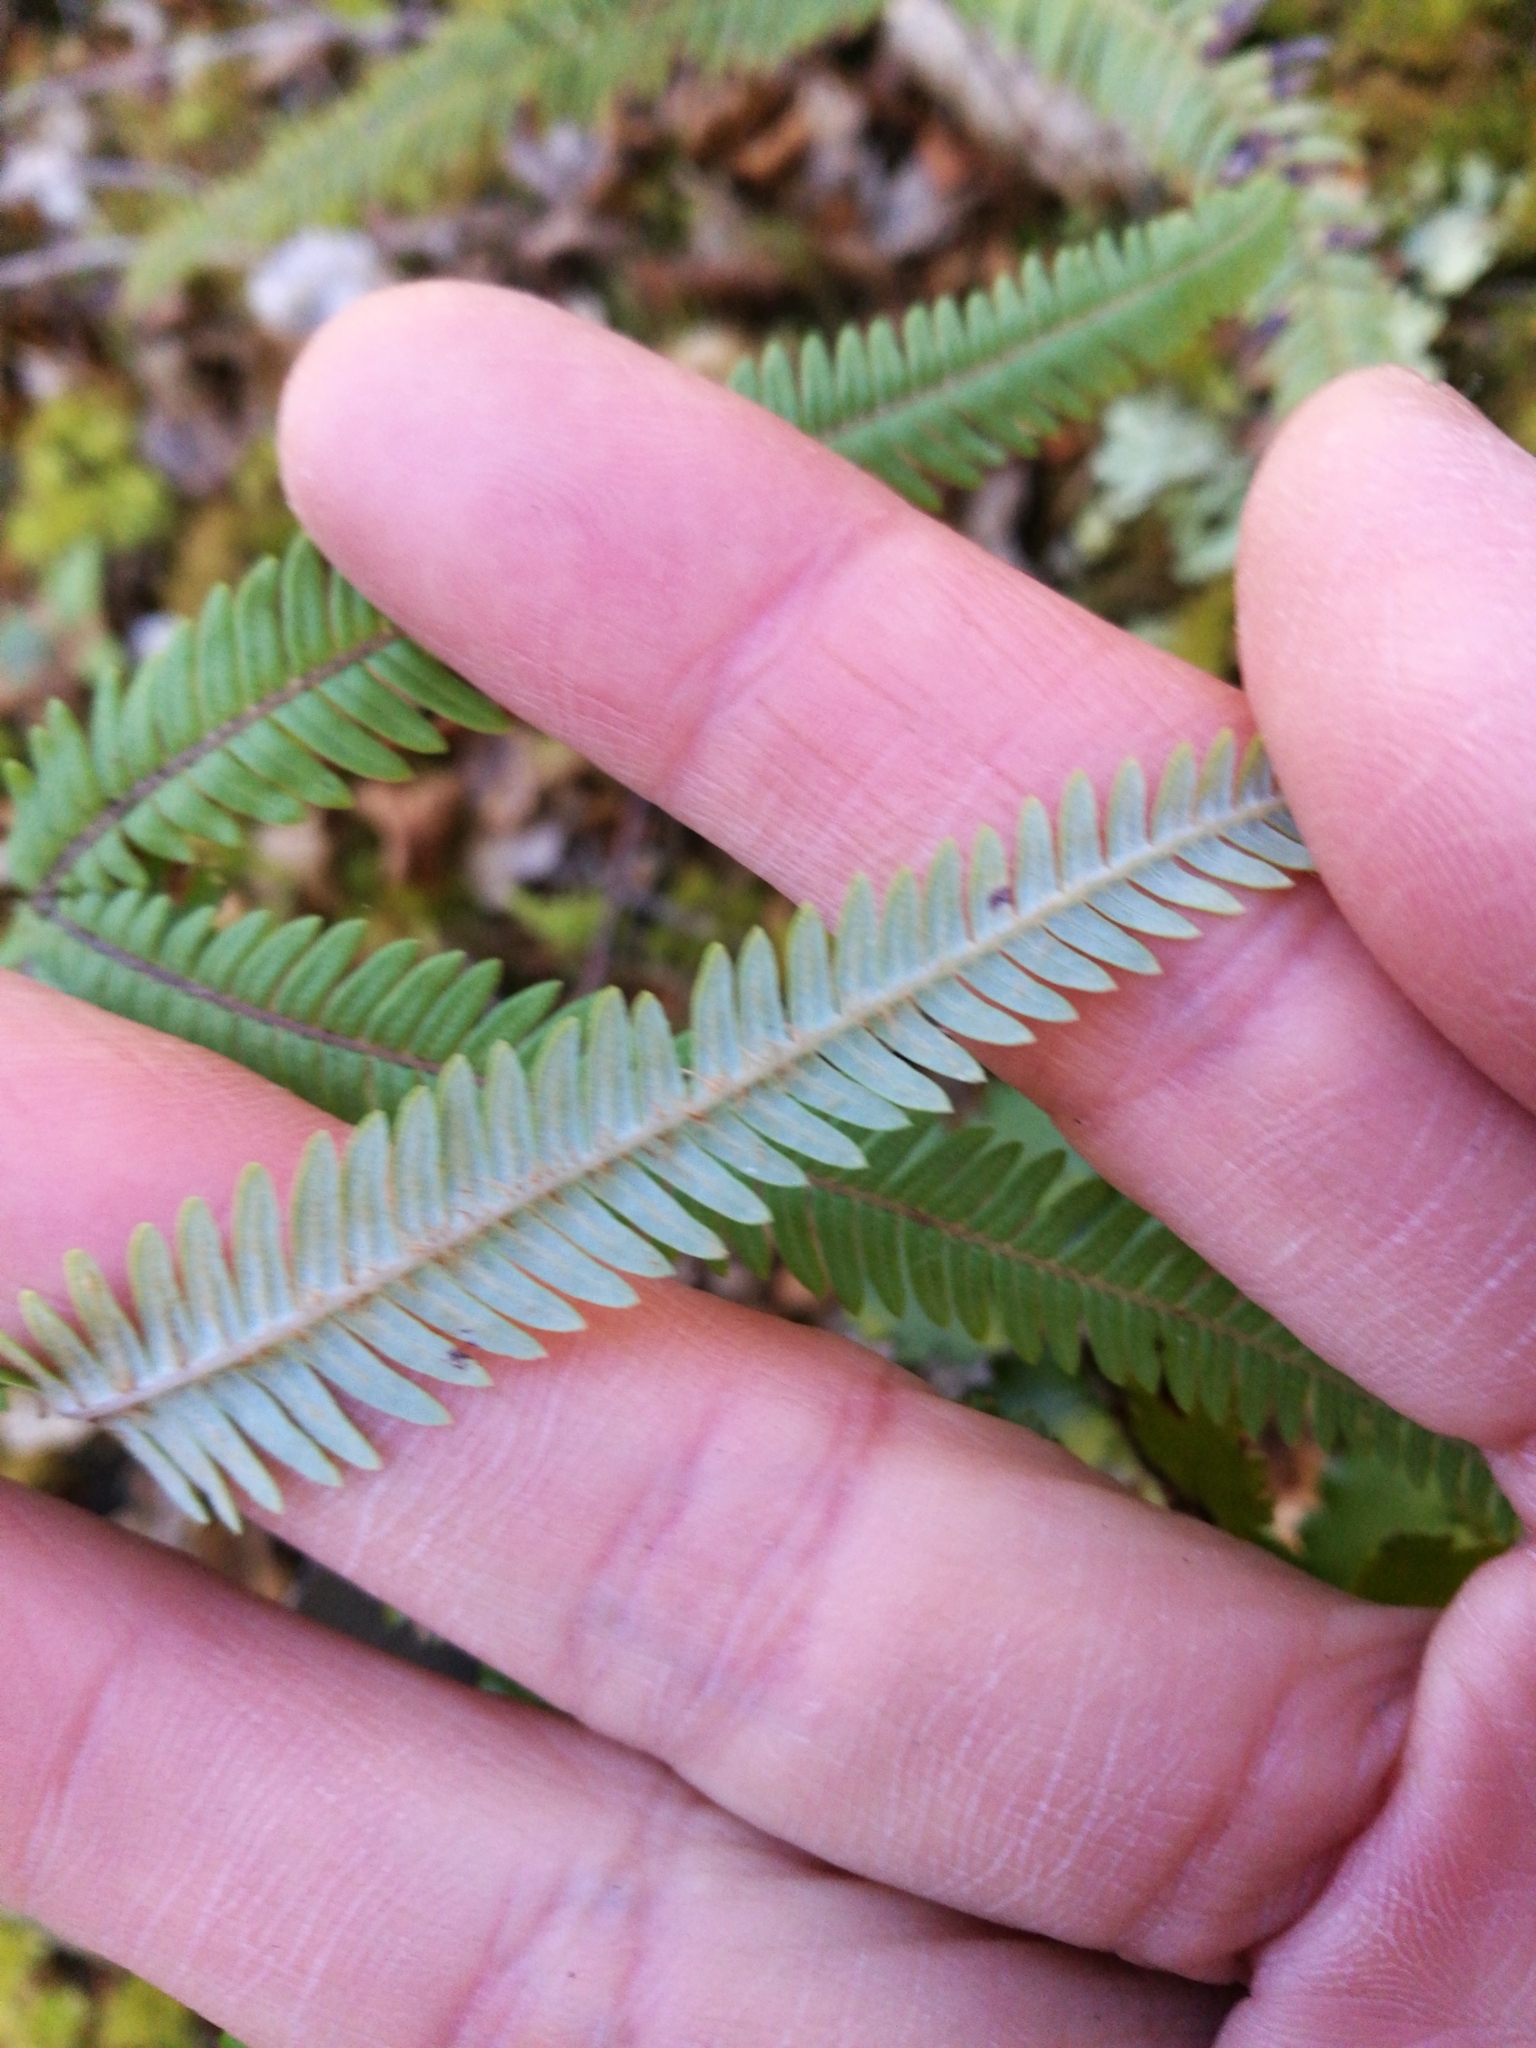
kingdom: Plantae
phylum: Tracheophyta
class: Polypodiopsida
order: Gleicheniales
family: Gleicheniaceae
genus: Sticherus
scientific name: Sticherus cunninghamii
